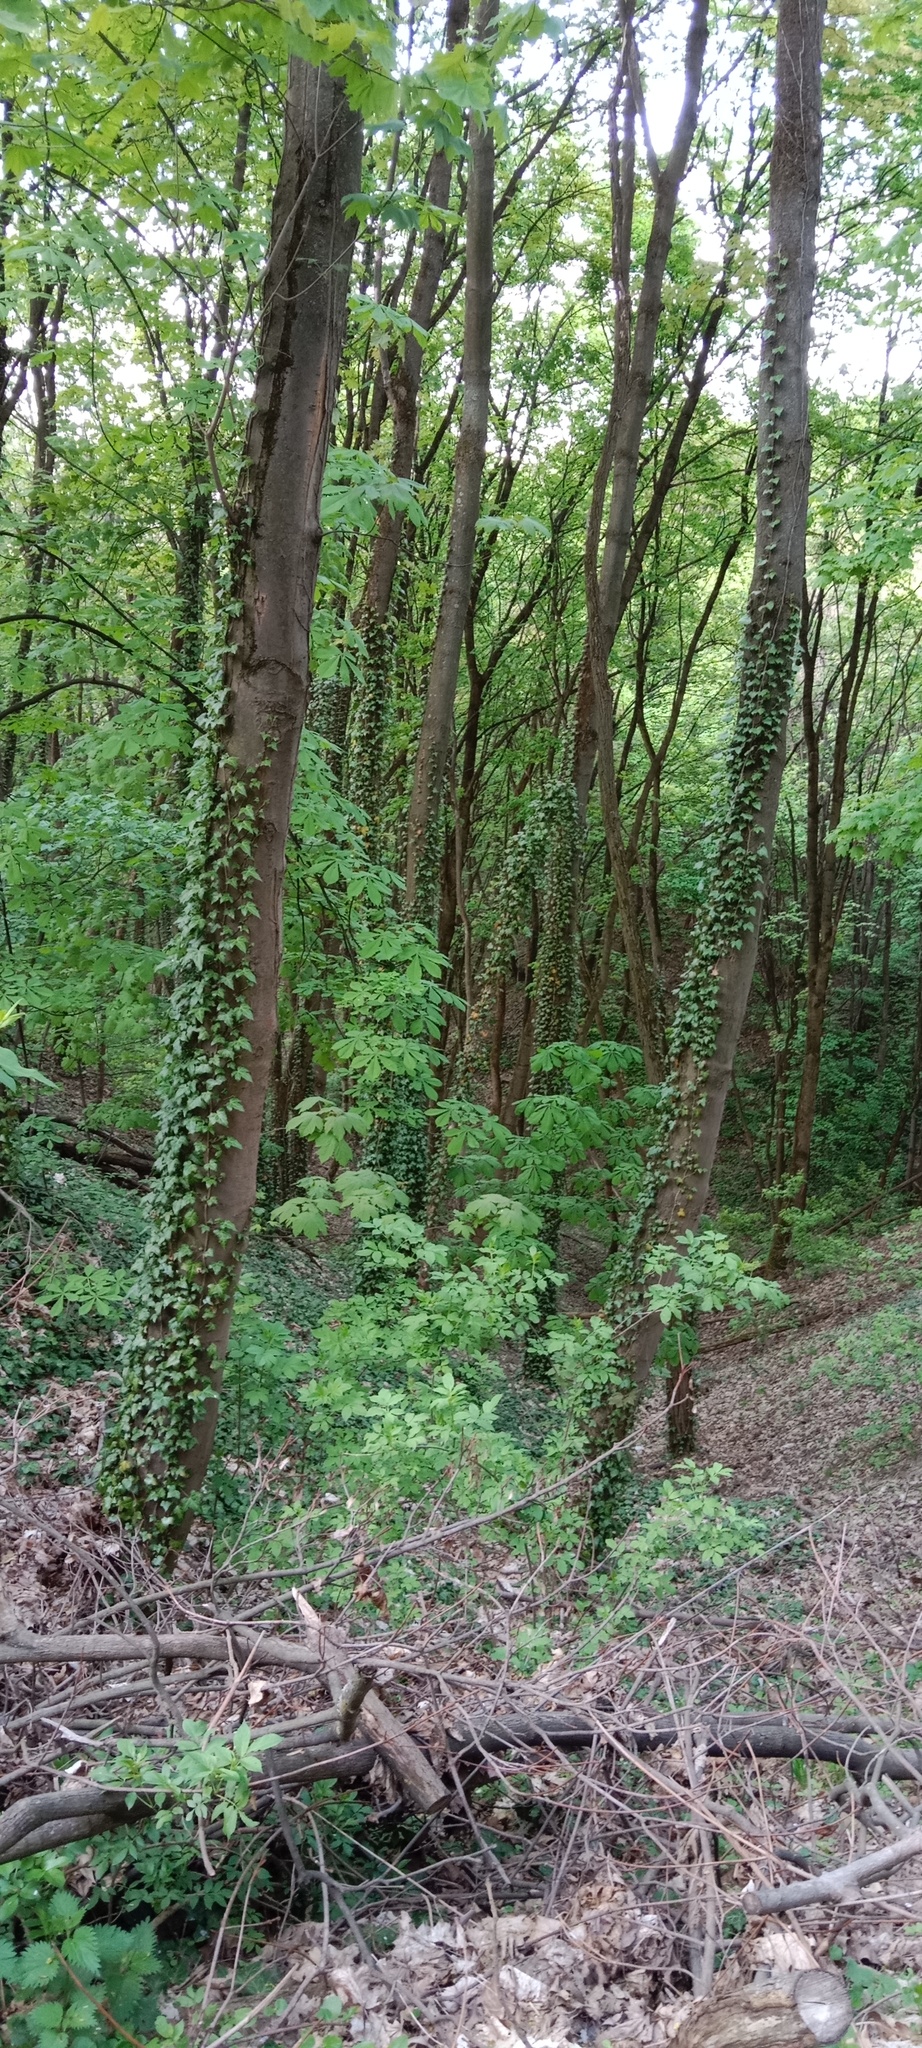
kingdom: Plantae
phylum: Tracheophyta
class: Magnoliopsida
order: Apiales
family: Araliaceae
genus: Hedera
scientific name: Hedera helix
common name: Ivy
